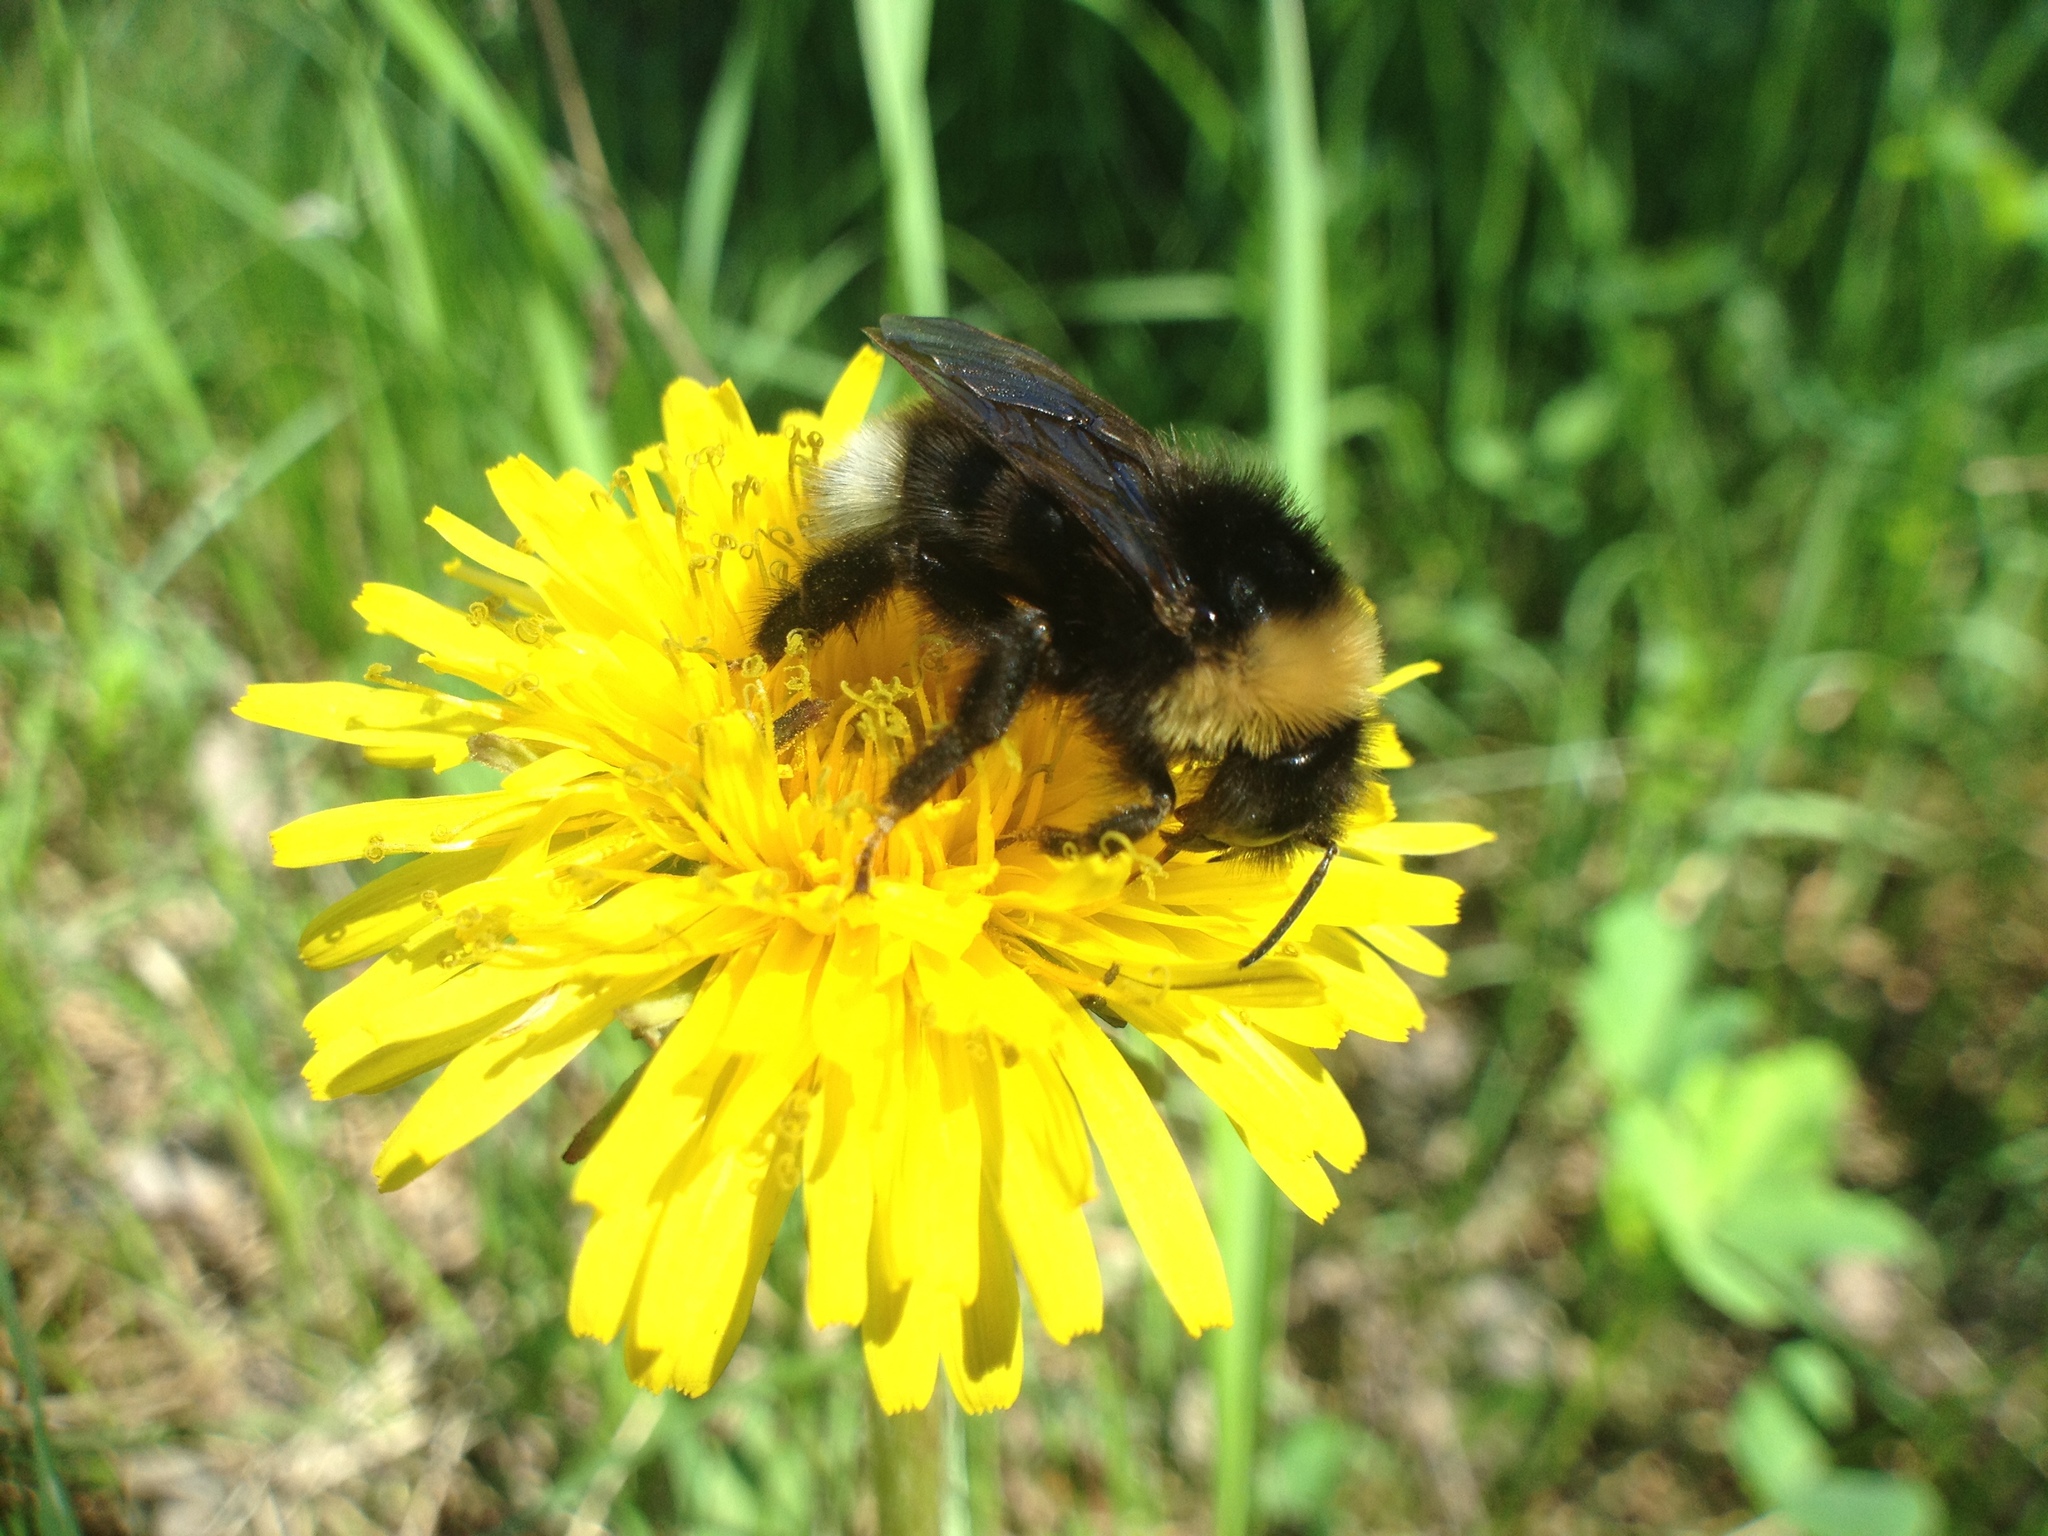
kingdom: Animalia
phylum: Arthropoda
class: Insecta
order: Hymenoptera
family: Apidae
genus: Bombus
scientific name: Bombus bohemicus
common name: Gypsy cuckoo bee
